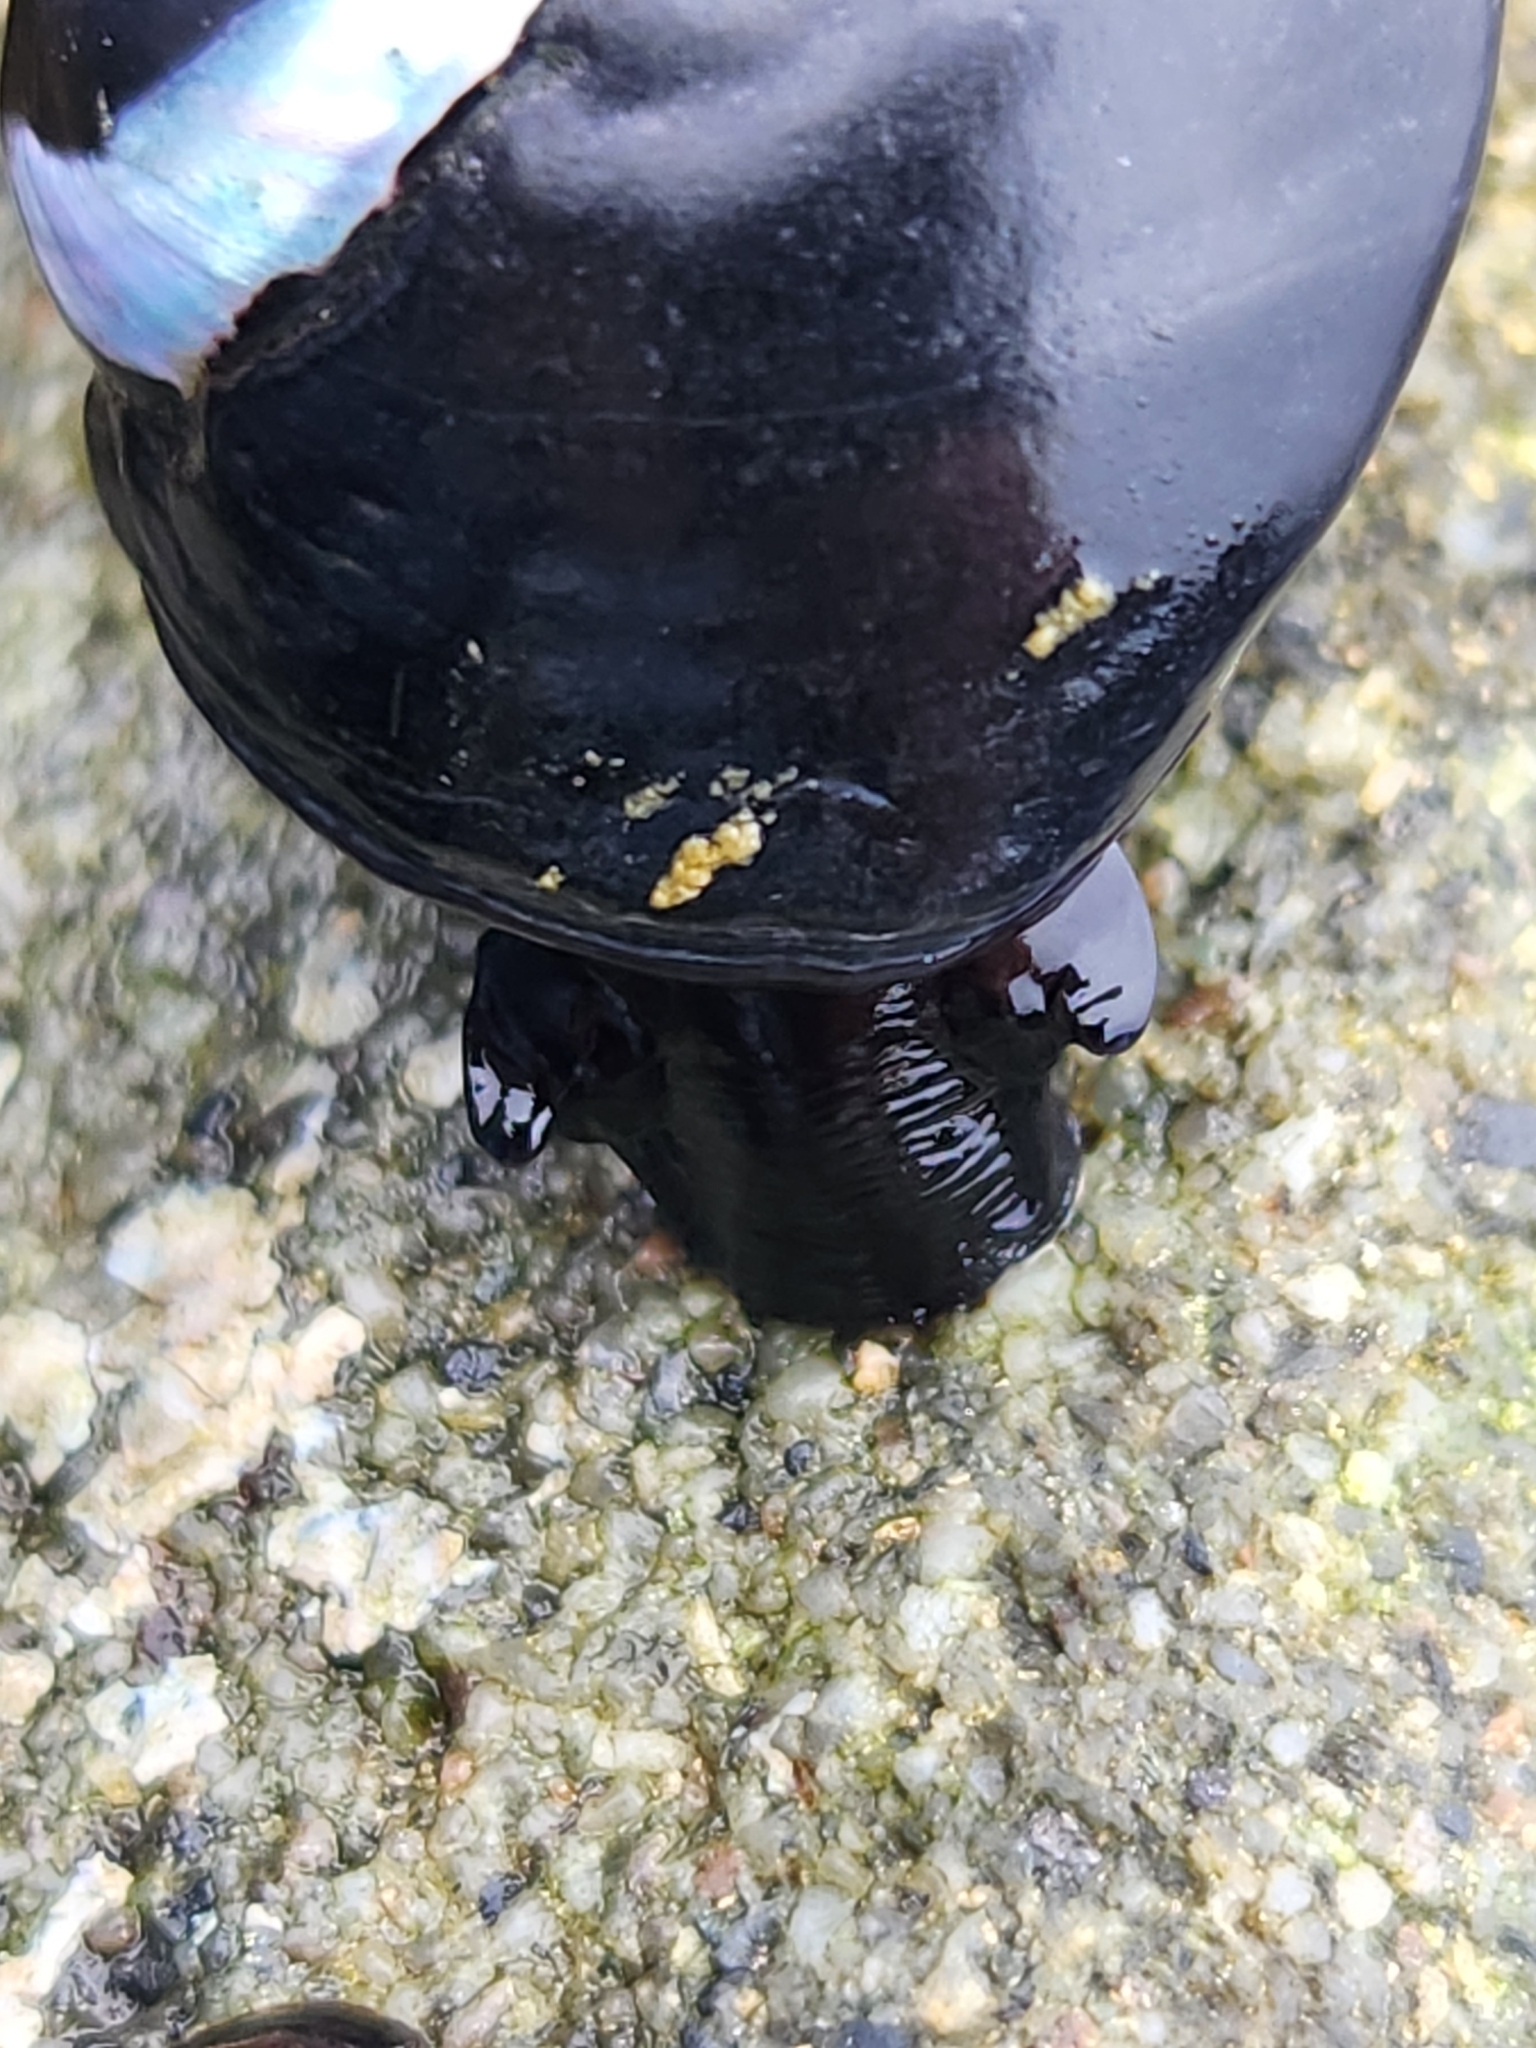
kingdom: Animalia
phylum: Mollusca
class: Gastropoda
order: Trochida
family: Tegulidae
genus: Tegula
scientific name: Tegula funebralis
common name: Black tegula
